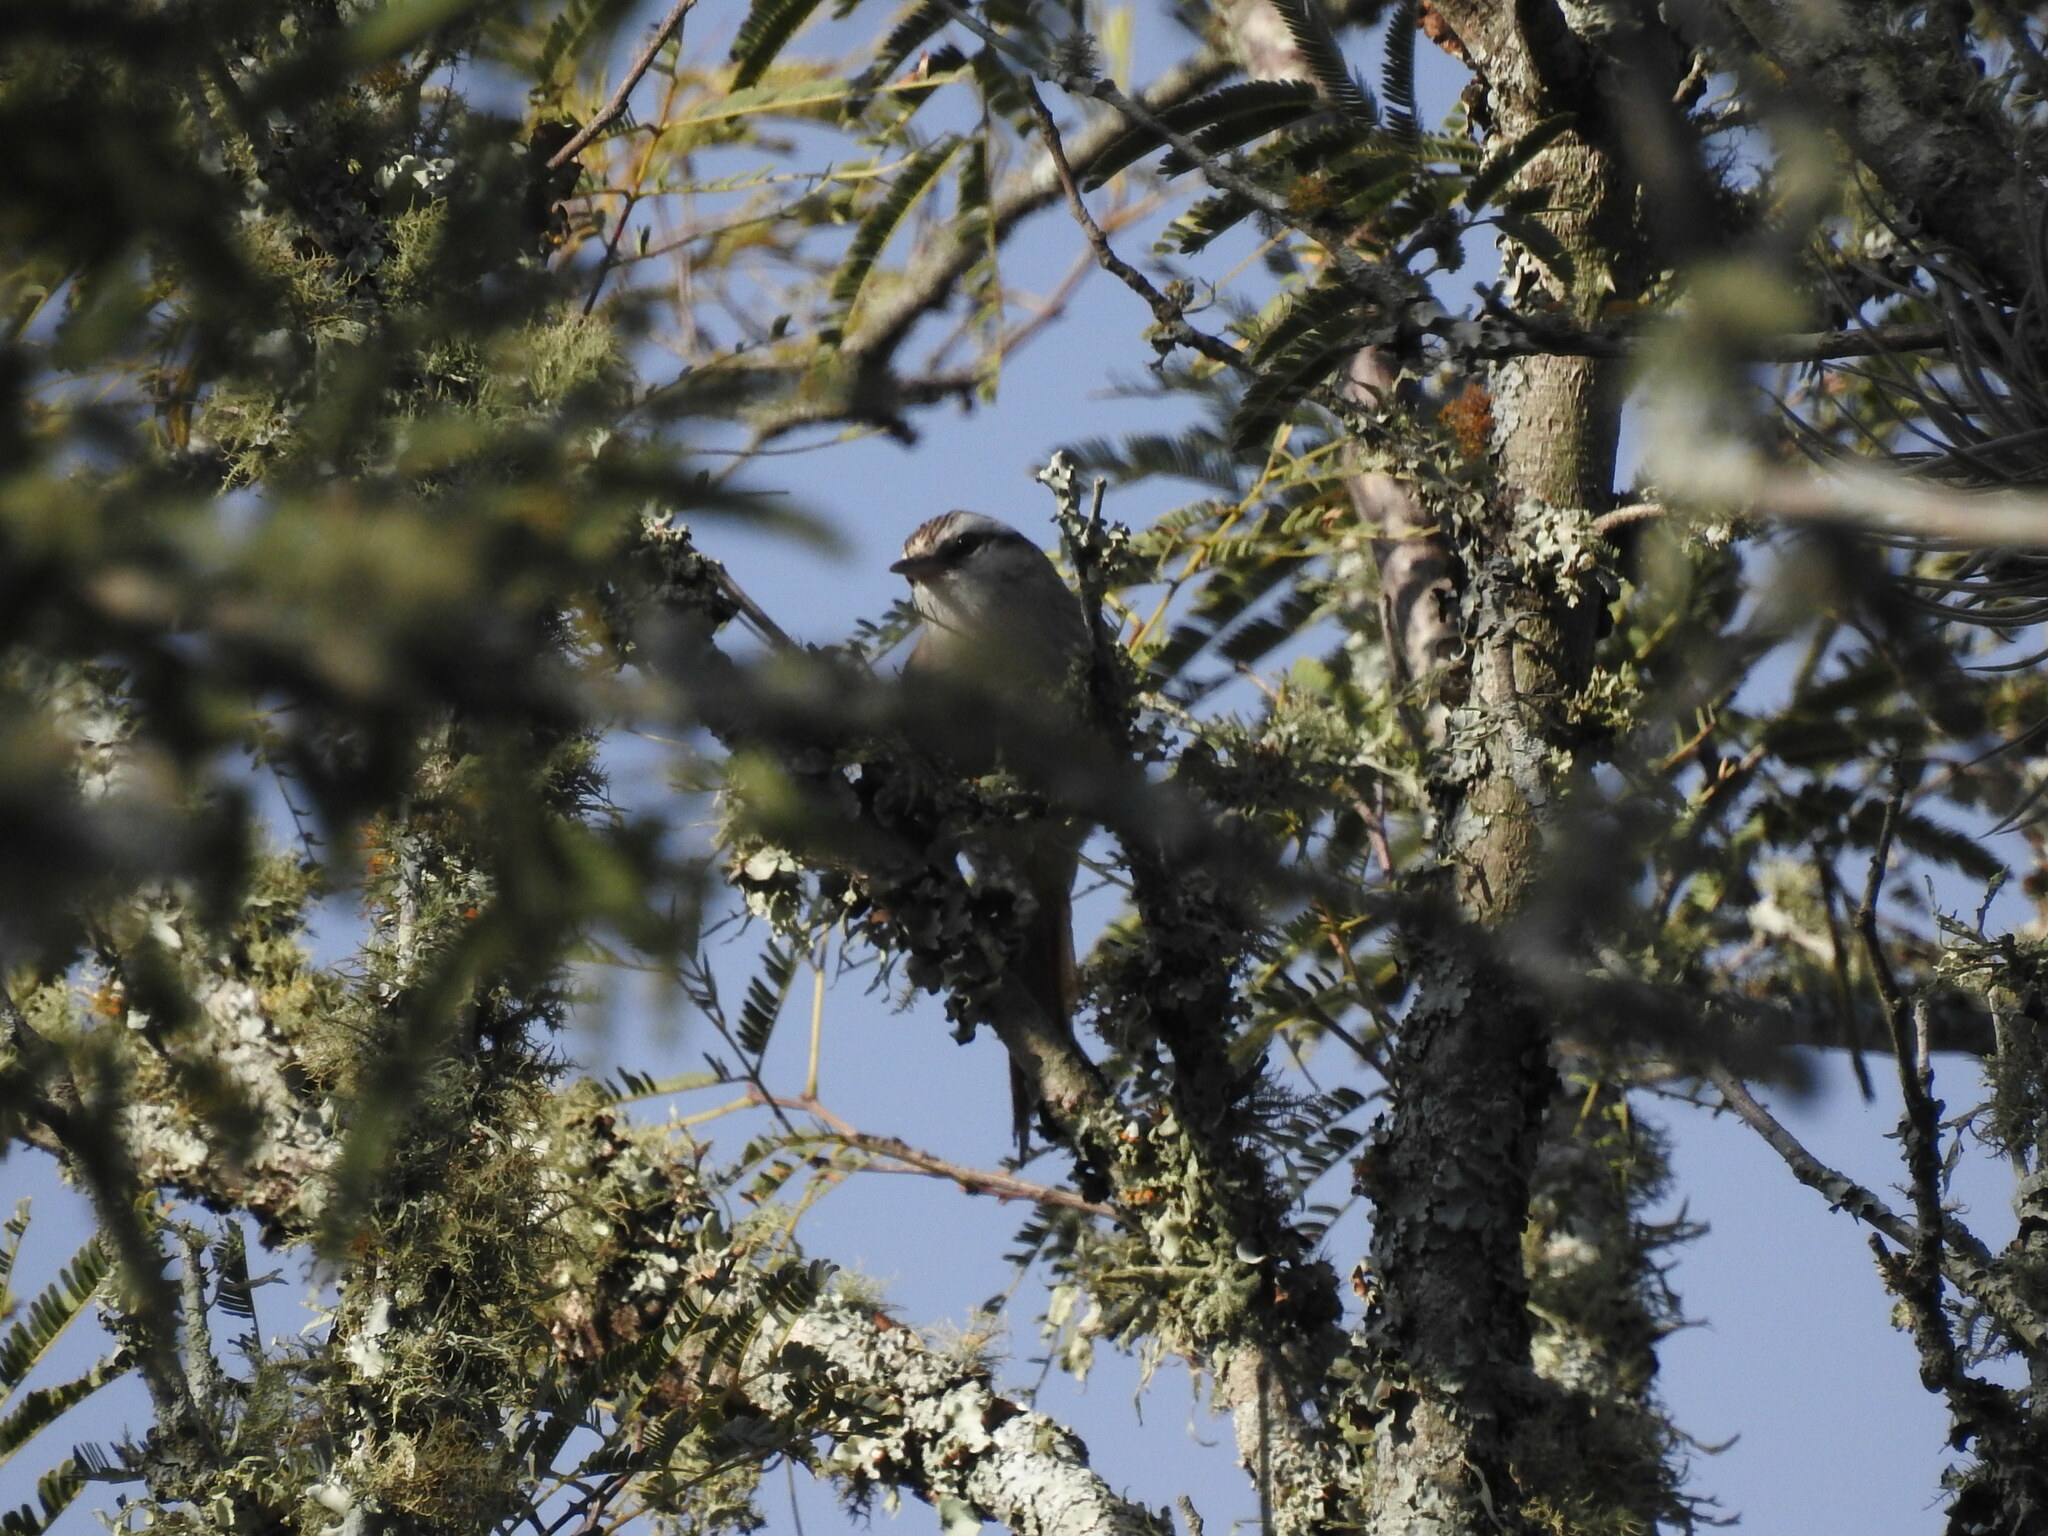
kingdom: Animalia
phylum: Chordata
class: Aves
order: Passeriformes
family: Furnariidae
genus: Cranioleuca
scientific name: Cranioleuca pyrrhophia
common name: Stripe-crowned spinetail
